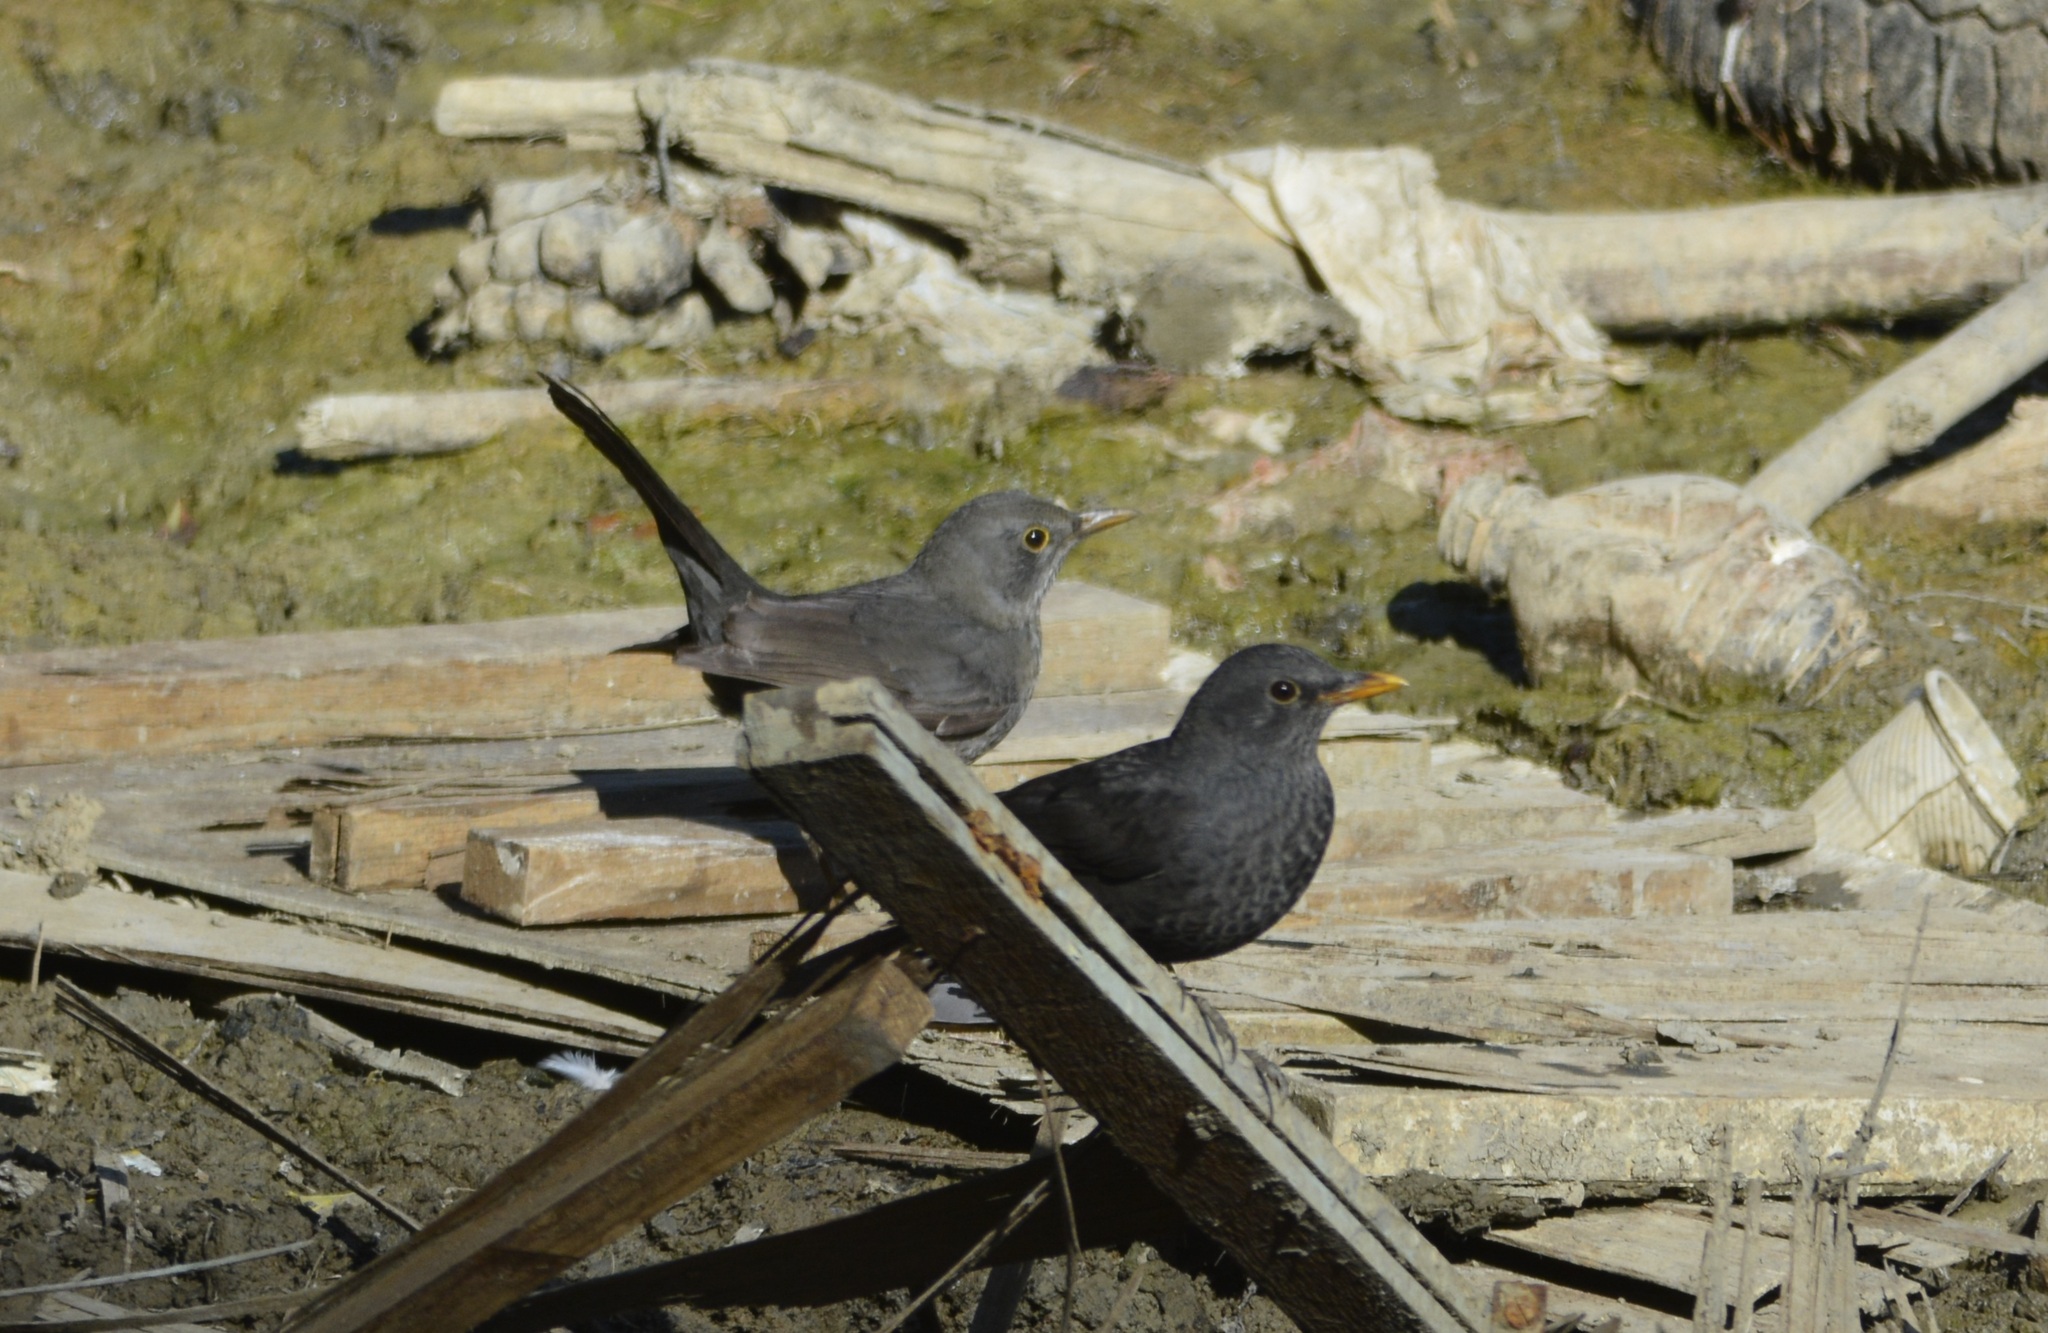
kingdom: Animalia
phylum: Chordata
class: Aves
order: Passeriformes
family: Turdidae
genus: Turdus
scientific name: Turdus merula
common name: Common blackbird
